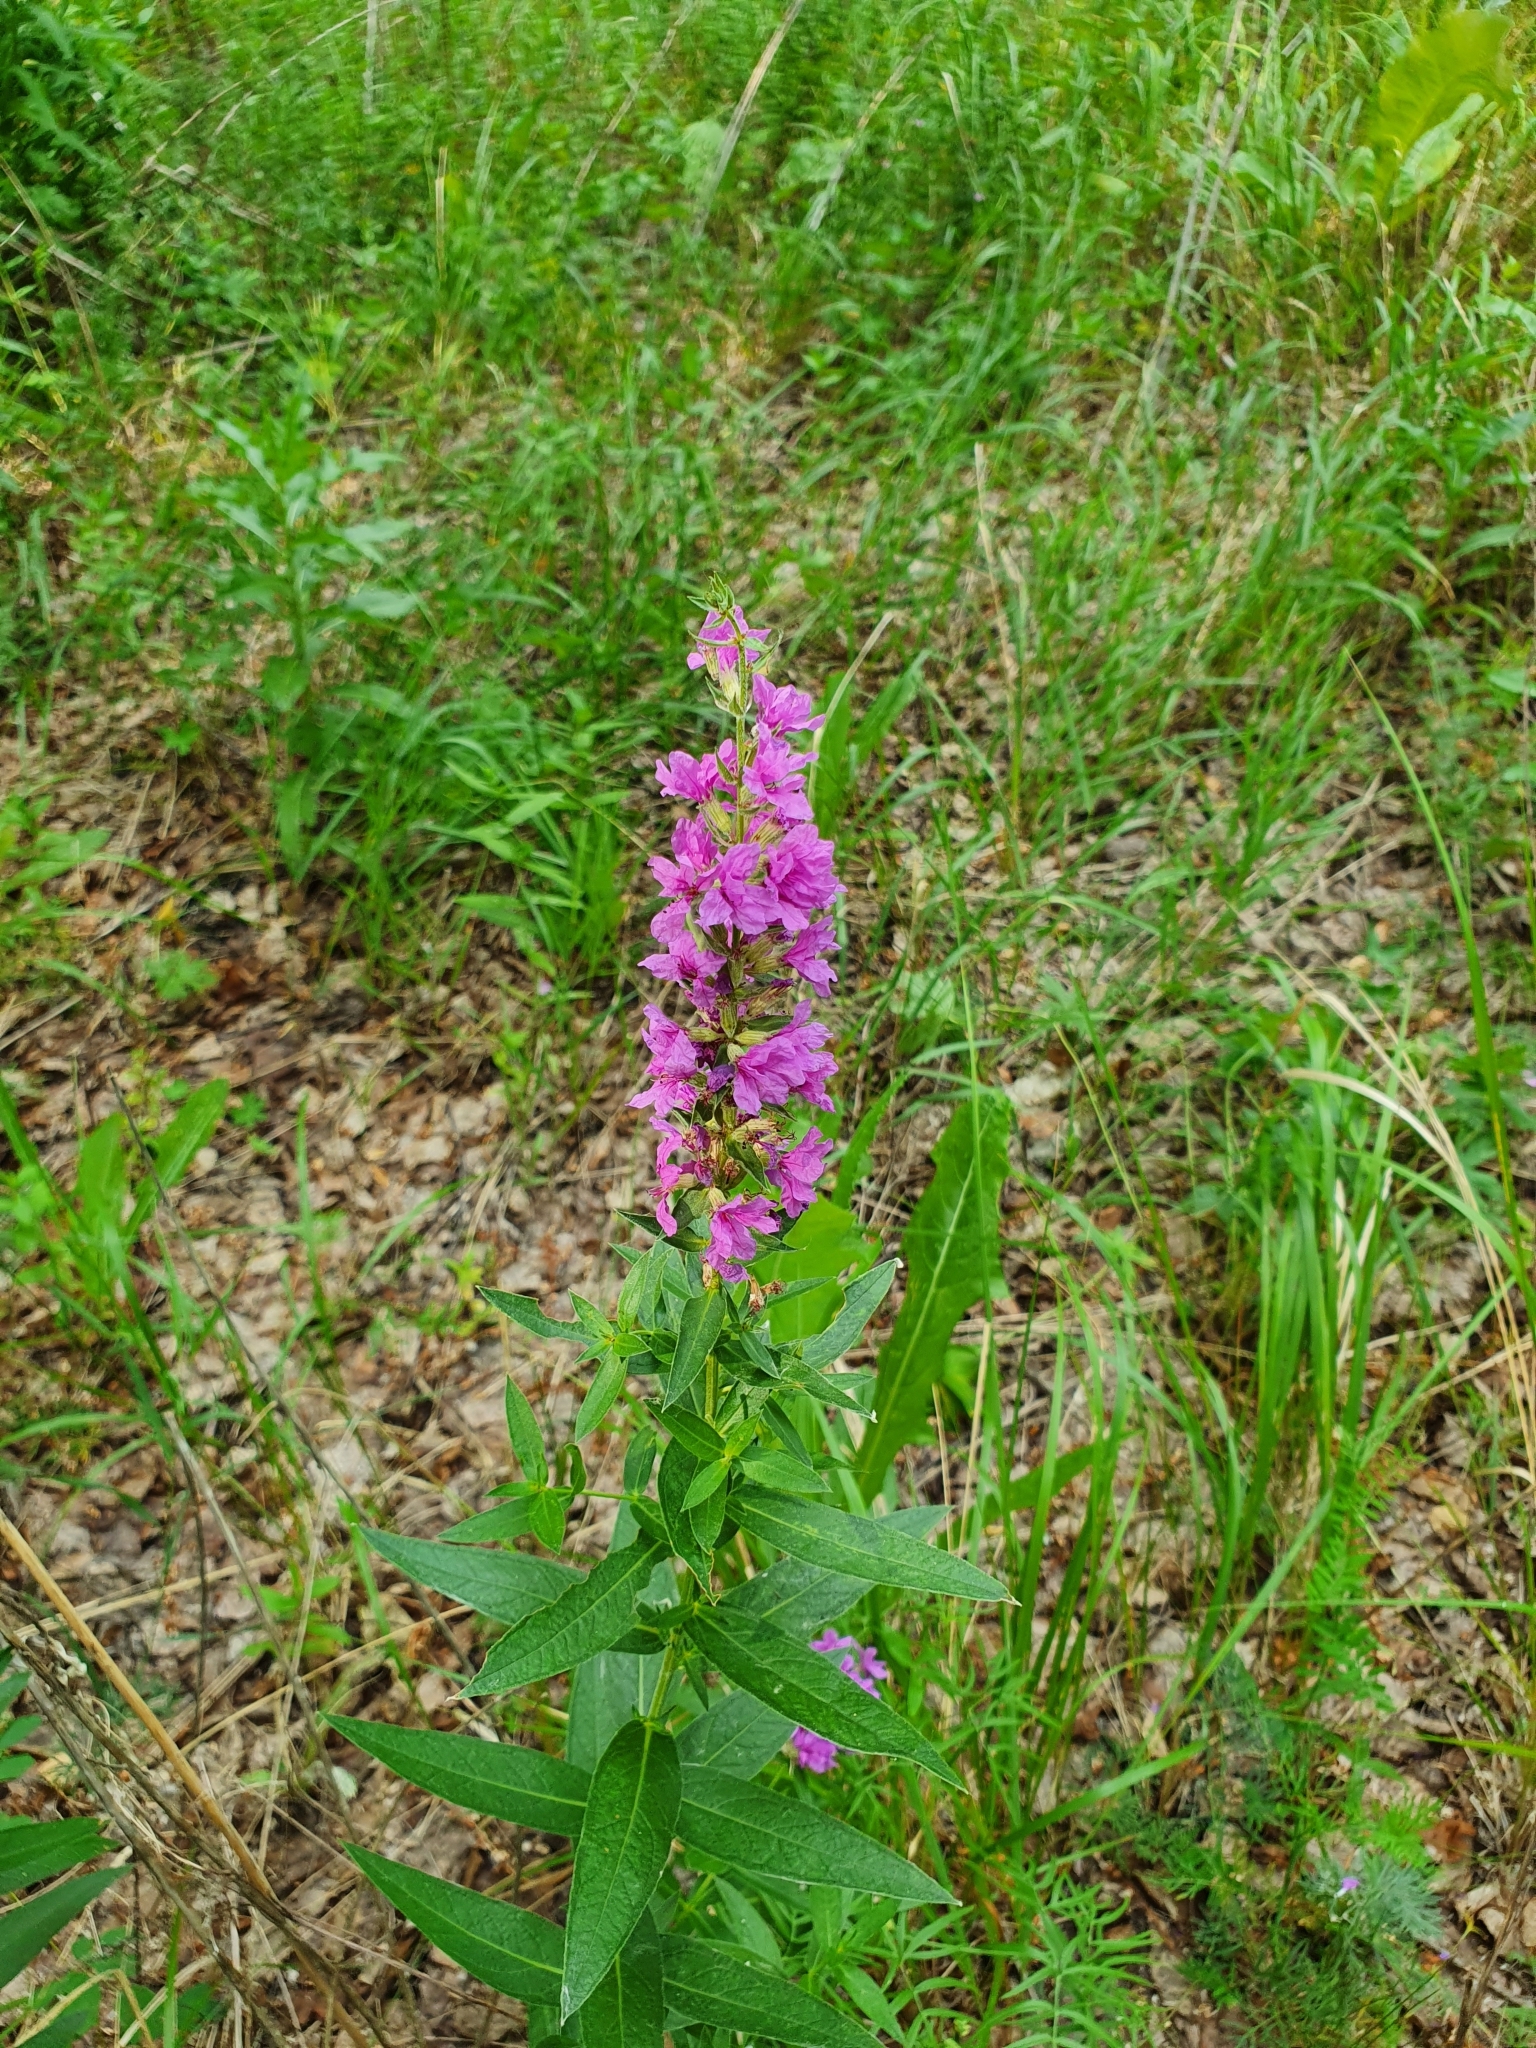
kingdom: Plantae
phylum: Tracheophyta
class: Magnoliopsida
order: Myrtales
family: Lythraceae
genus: Lythrum
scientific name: Lythrum salicaria
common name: Purple loosestrife
